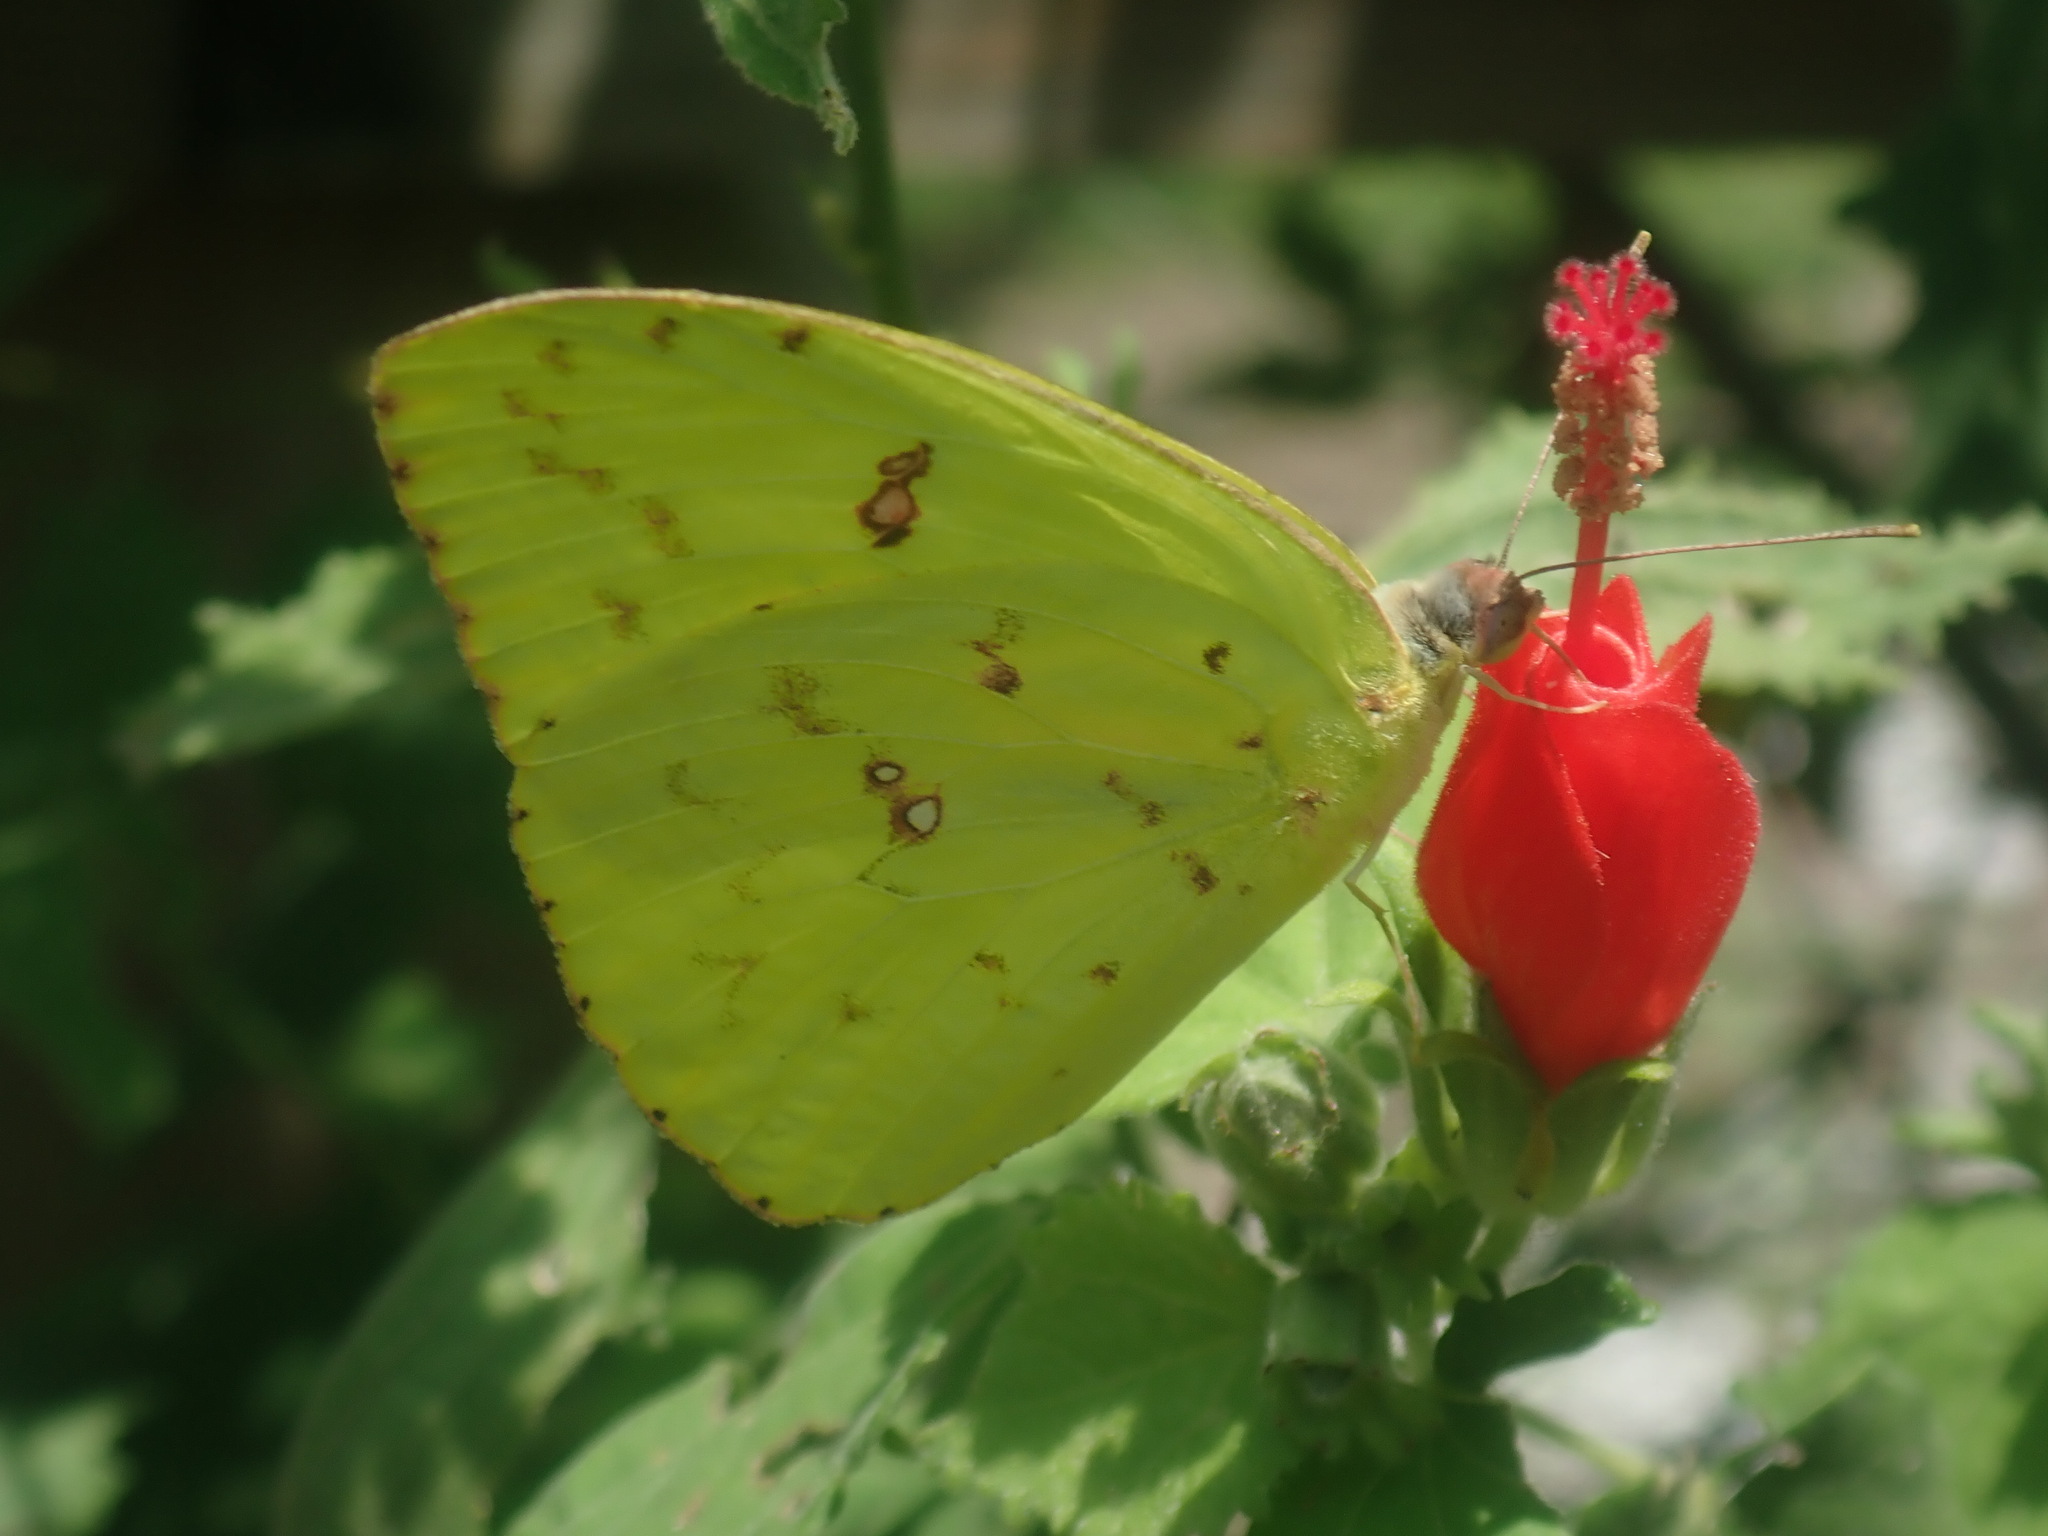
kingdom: Animalia
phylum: Arthropoda
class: Insecta
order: Lepidoptera
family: Pieridae
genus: Phoebis
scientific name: Phoebis marcellina
